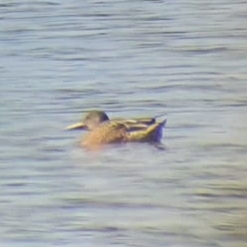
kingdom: Animalia
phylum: Chordata
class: Aves
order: Anseriformes
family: Anatidae
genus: Spatula
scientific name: Spatula clypeata
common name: Northern shoveler
